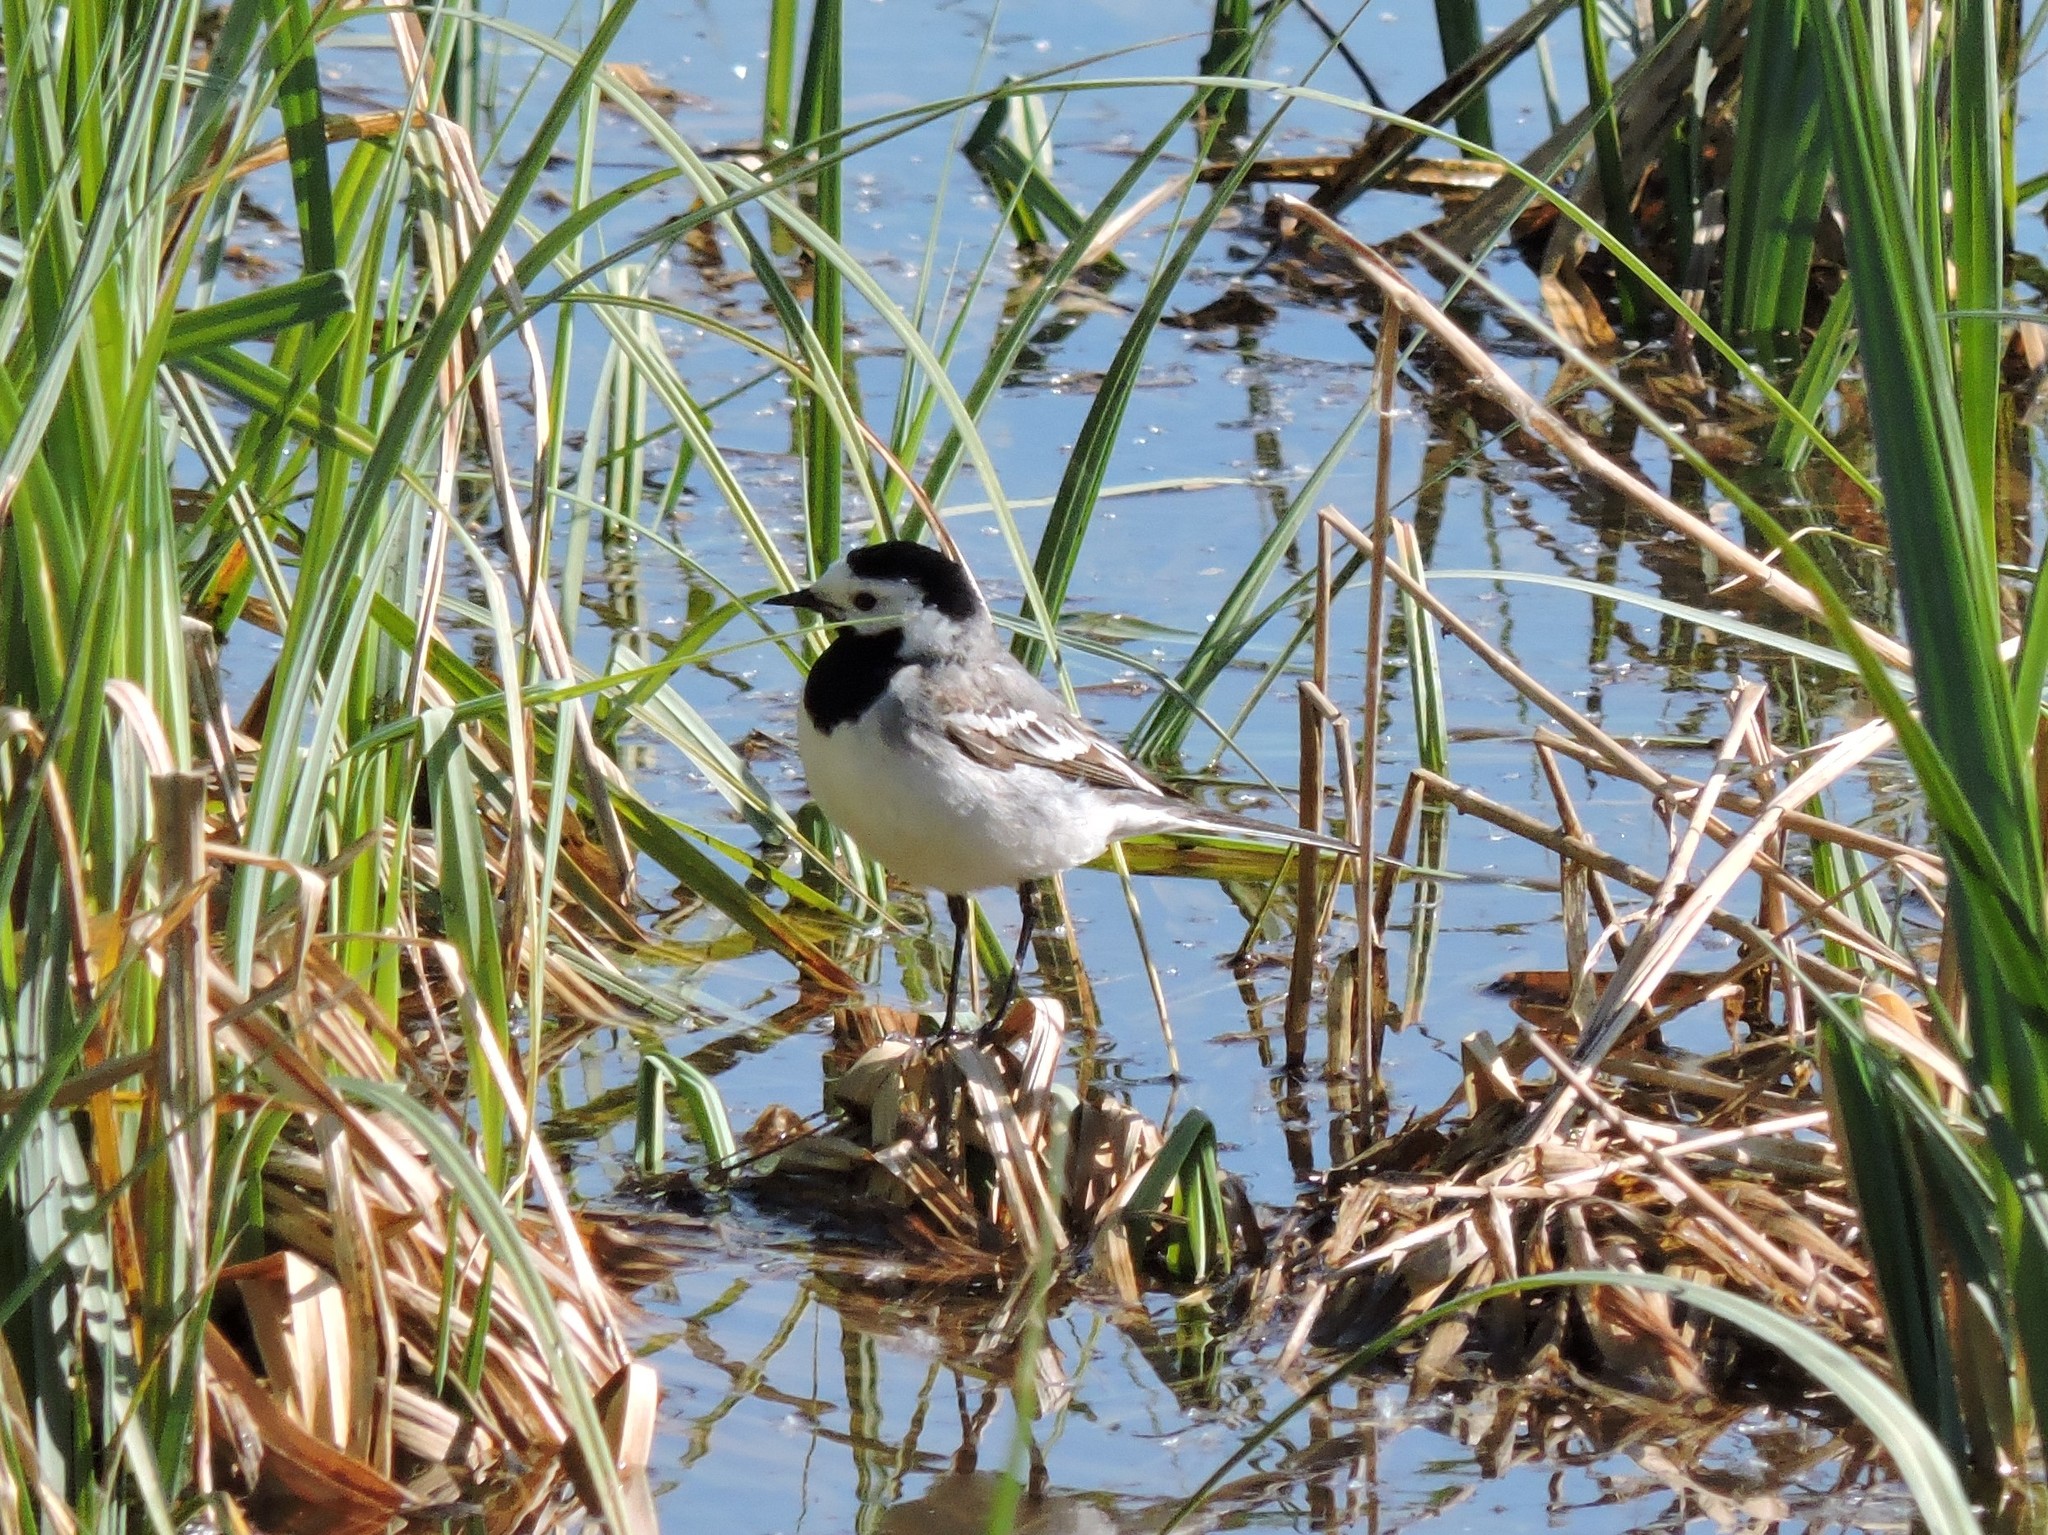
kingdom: Animalia
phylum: Chordata
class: Aves
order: Passeriformes
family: Motacillidae
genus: Motacilla
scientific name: Motacilla alba
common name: White wagtail
